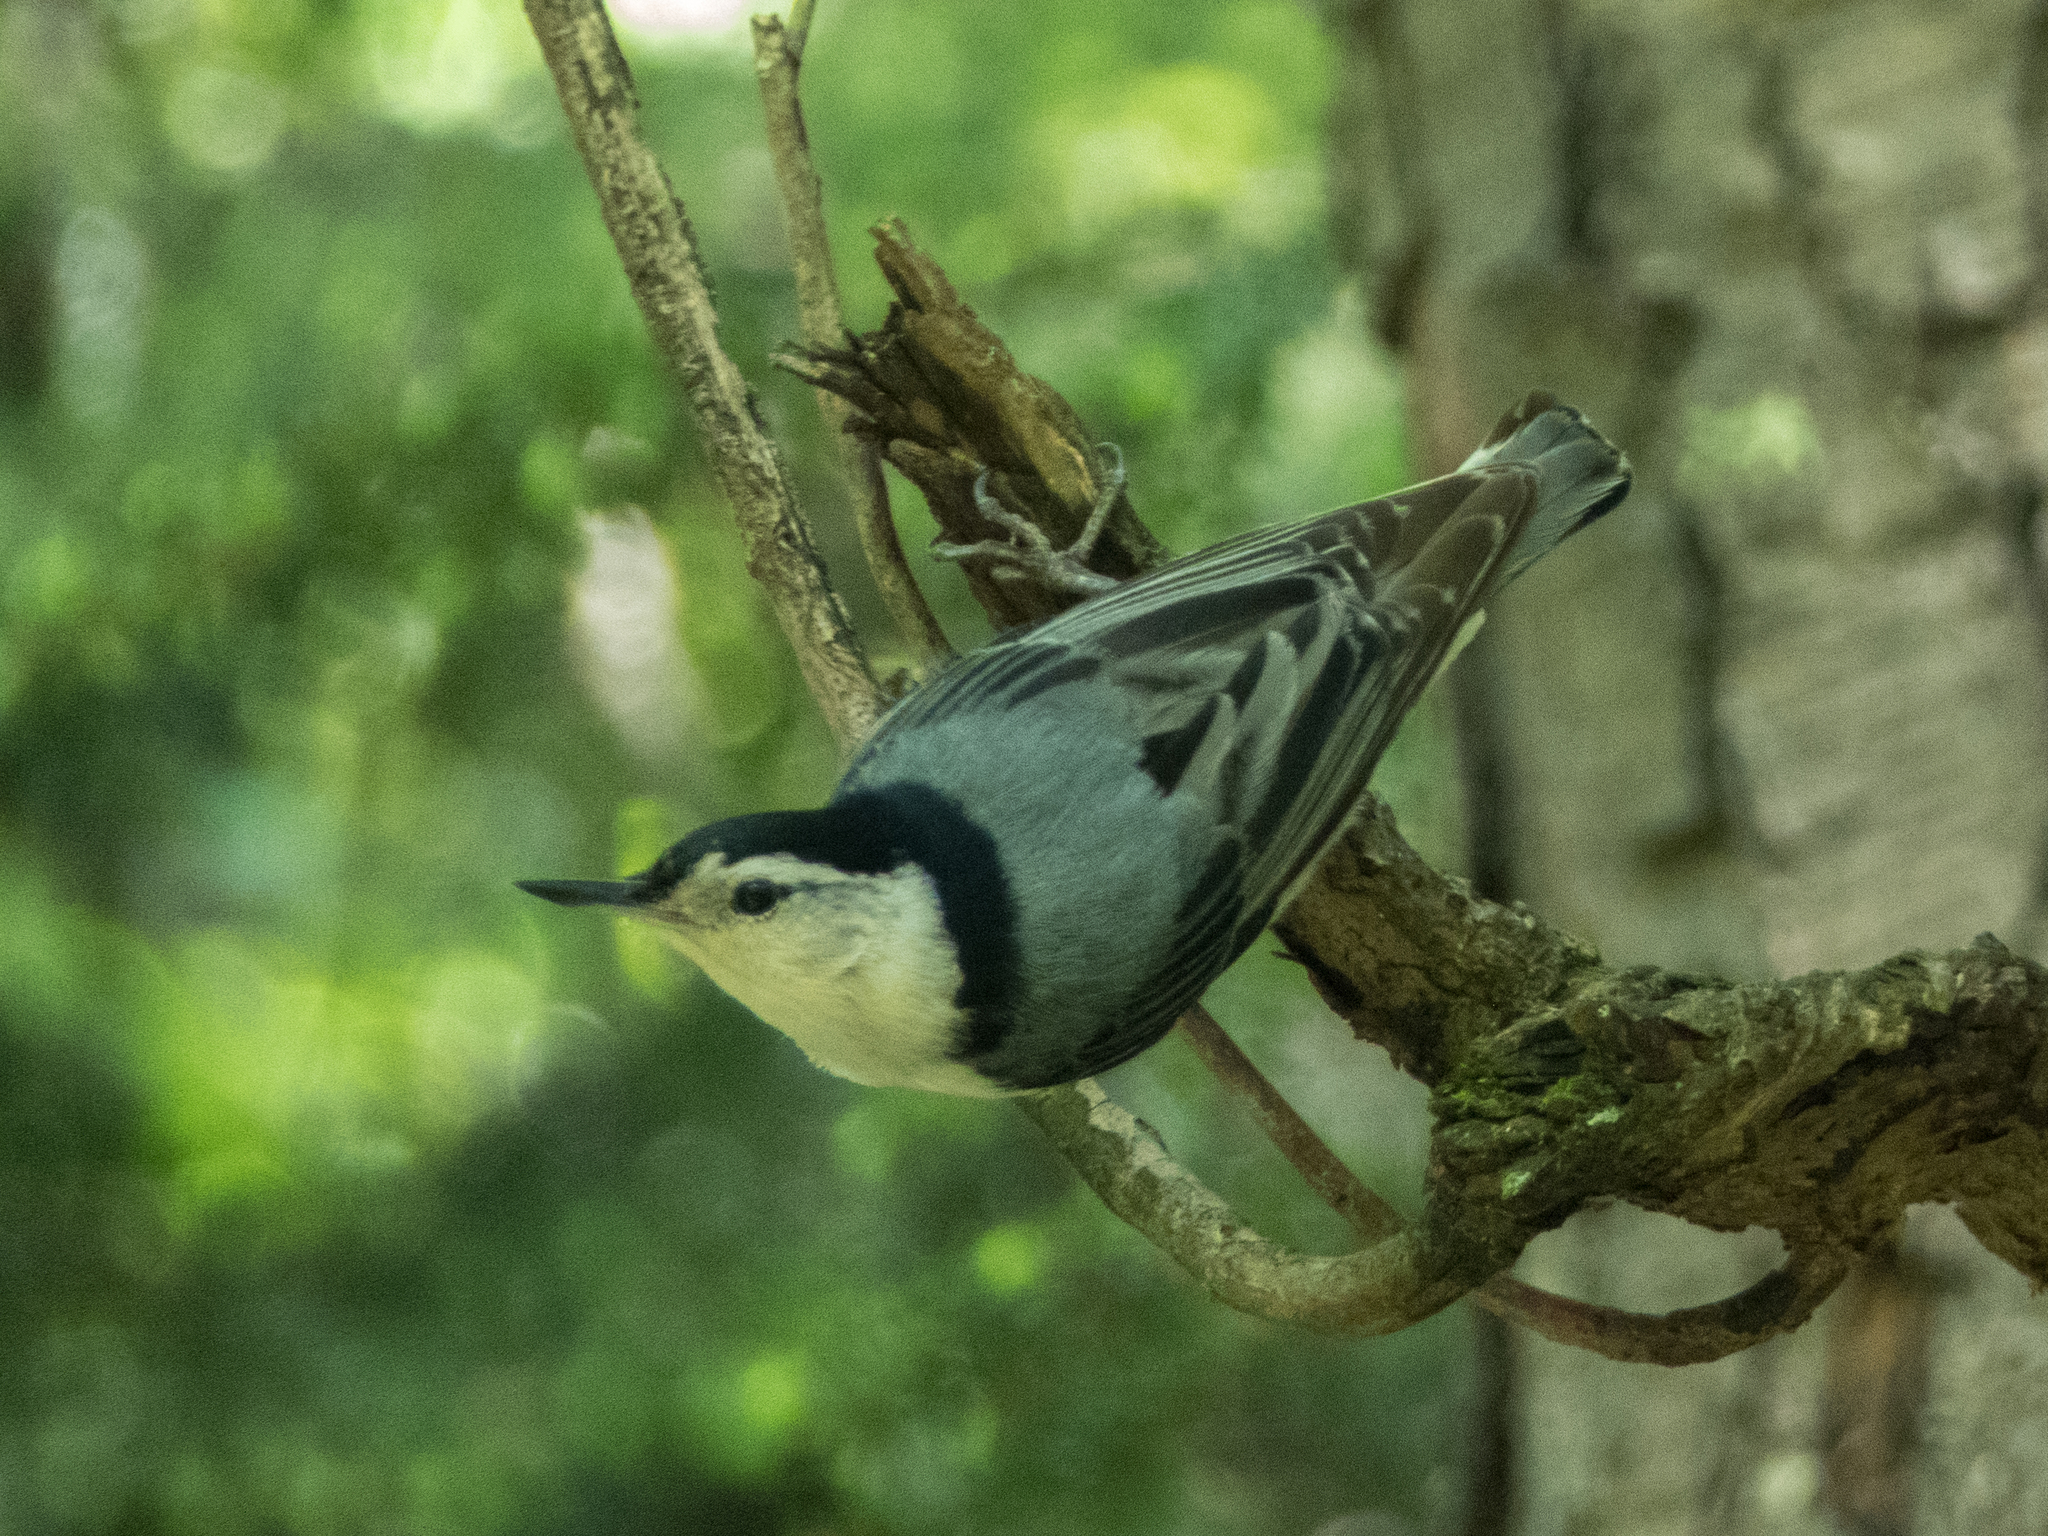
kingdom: Animalia
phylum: Chordata
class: Aves
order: Passeriformes
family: Sittidae
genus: Sitta
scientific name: Sitta carolinensis
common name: White-breasted nuthatch
